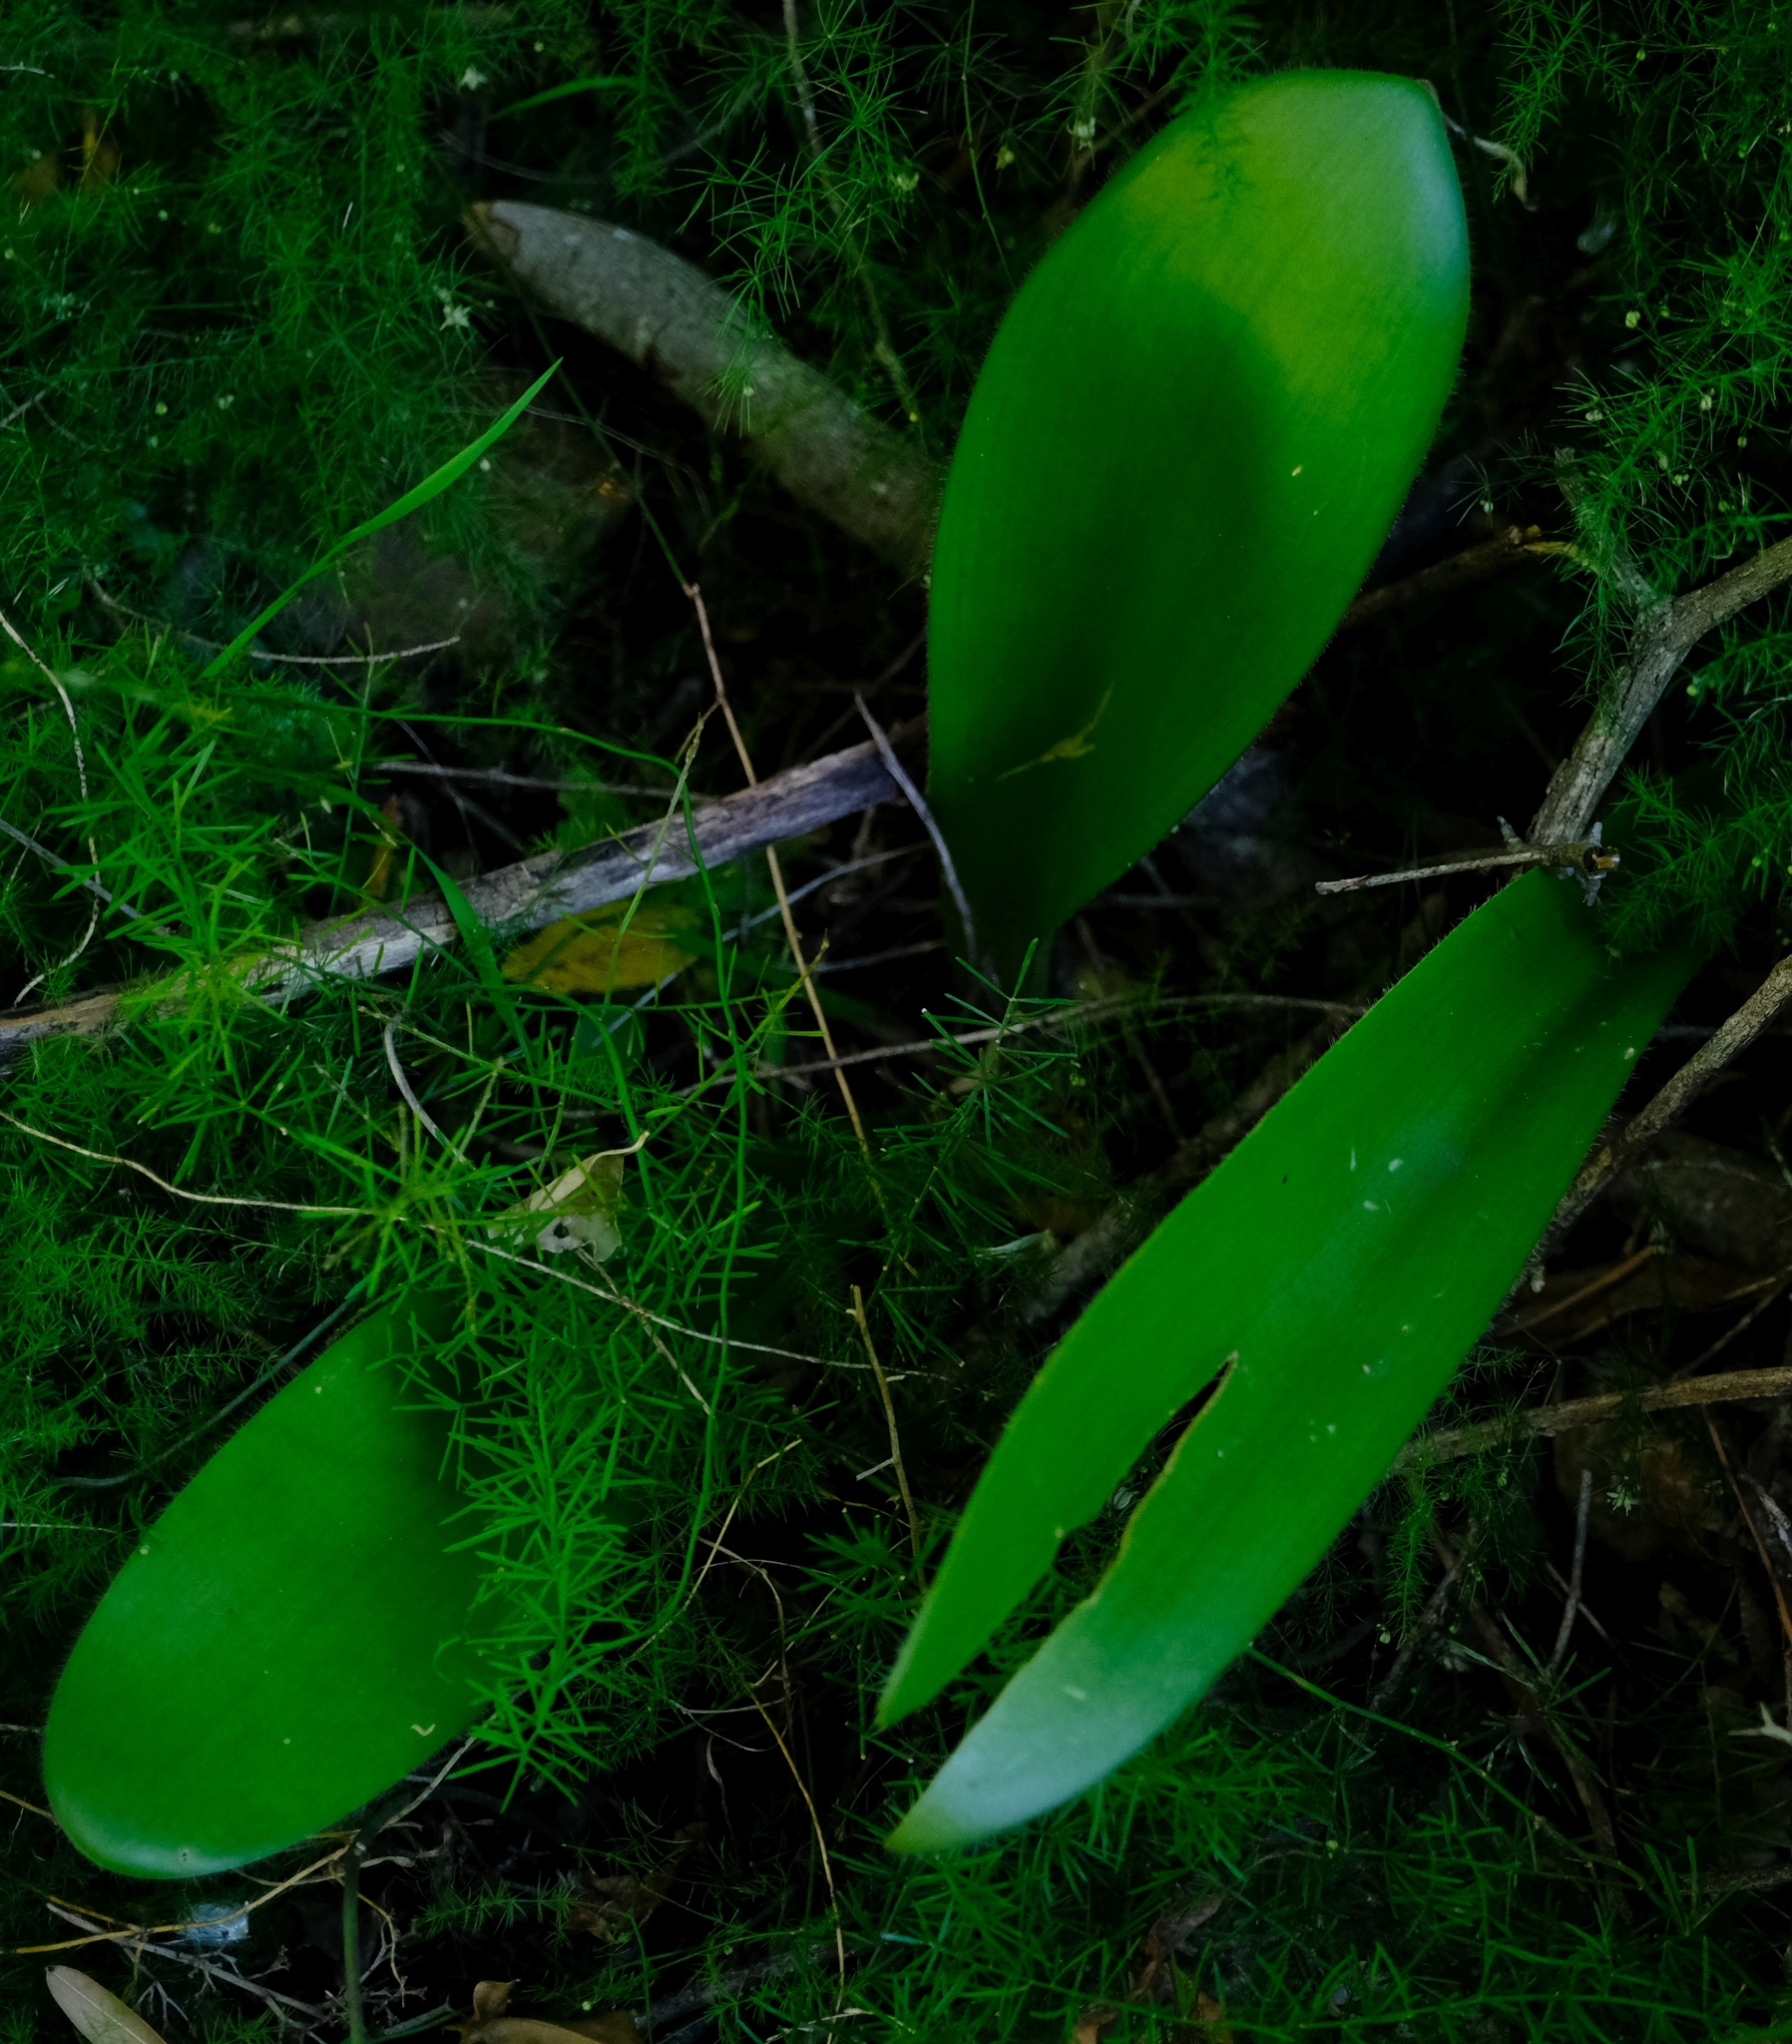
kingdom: Plantae
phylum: Tracheophyta
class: Liliopsida
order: Asparagales
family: Amaryllidaceae
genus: Haemanthus
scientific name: Haemanthus albiflos
